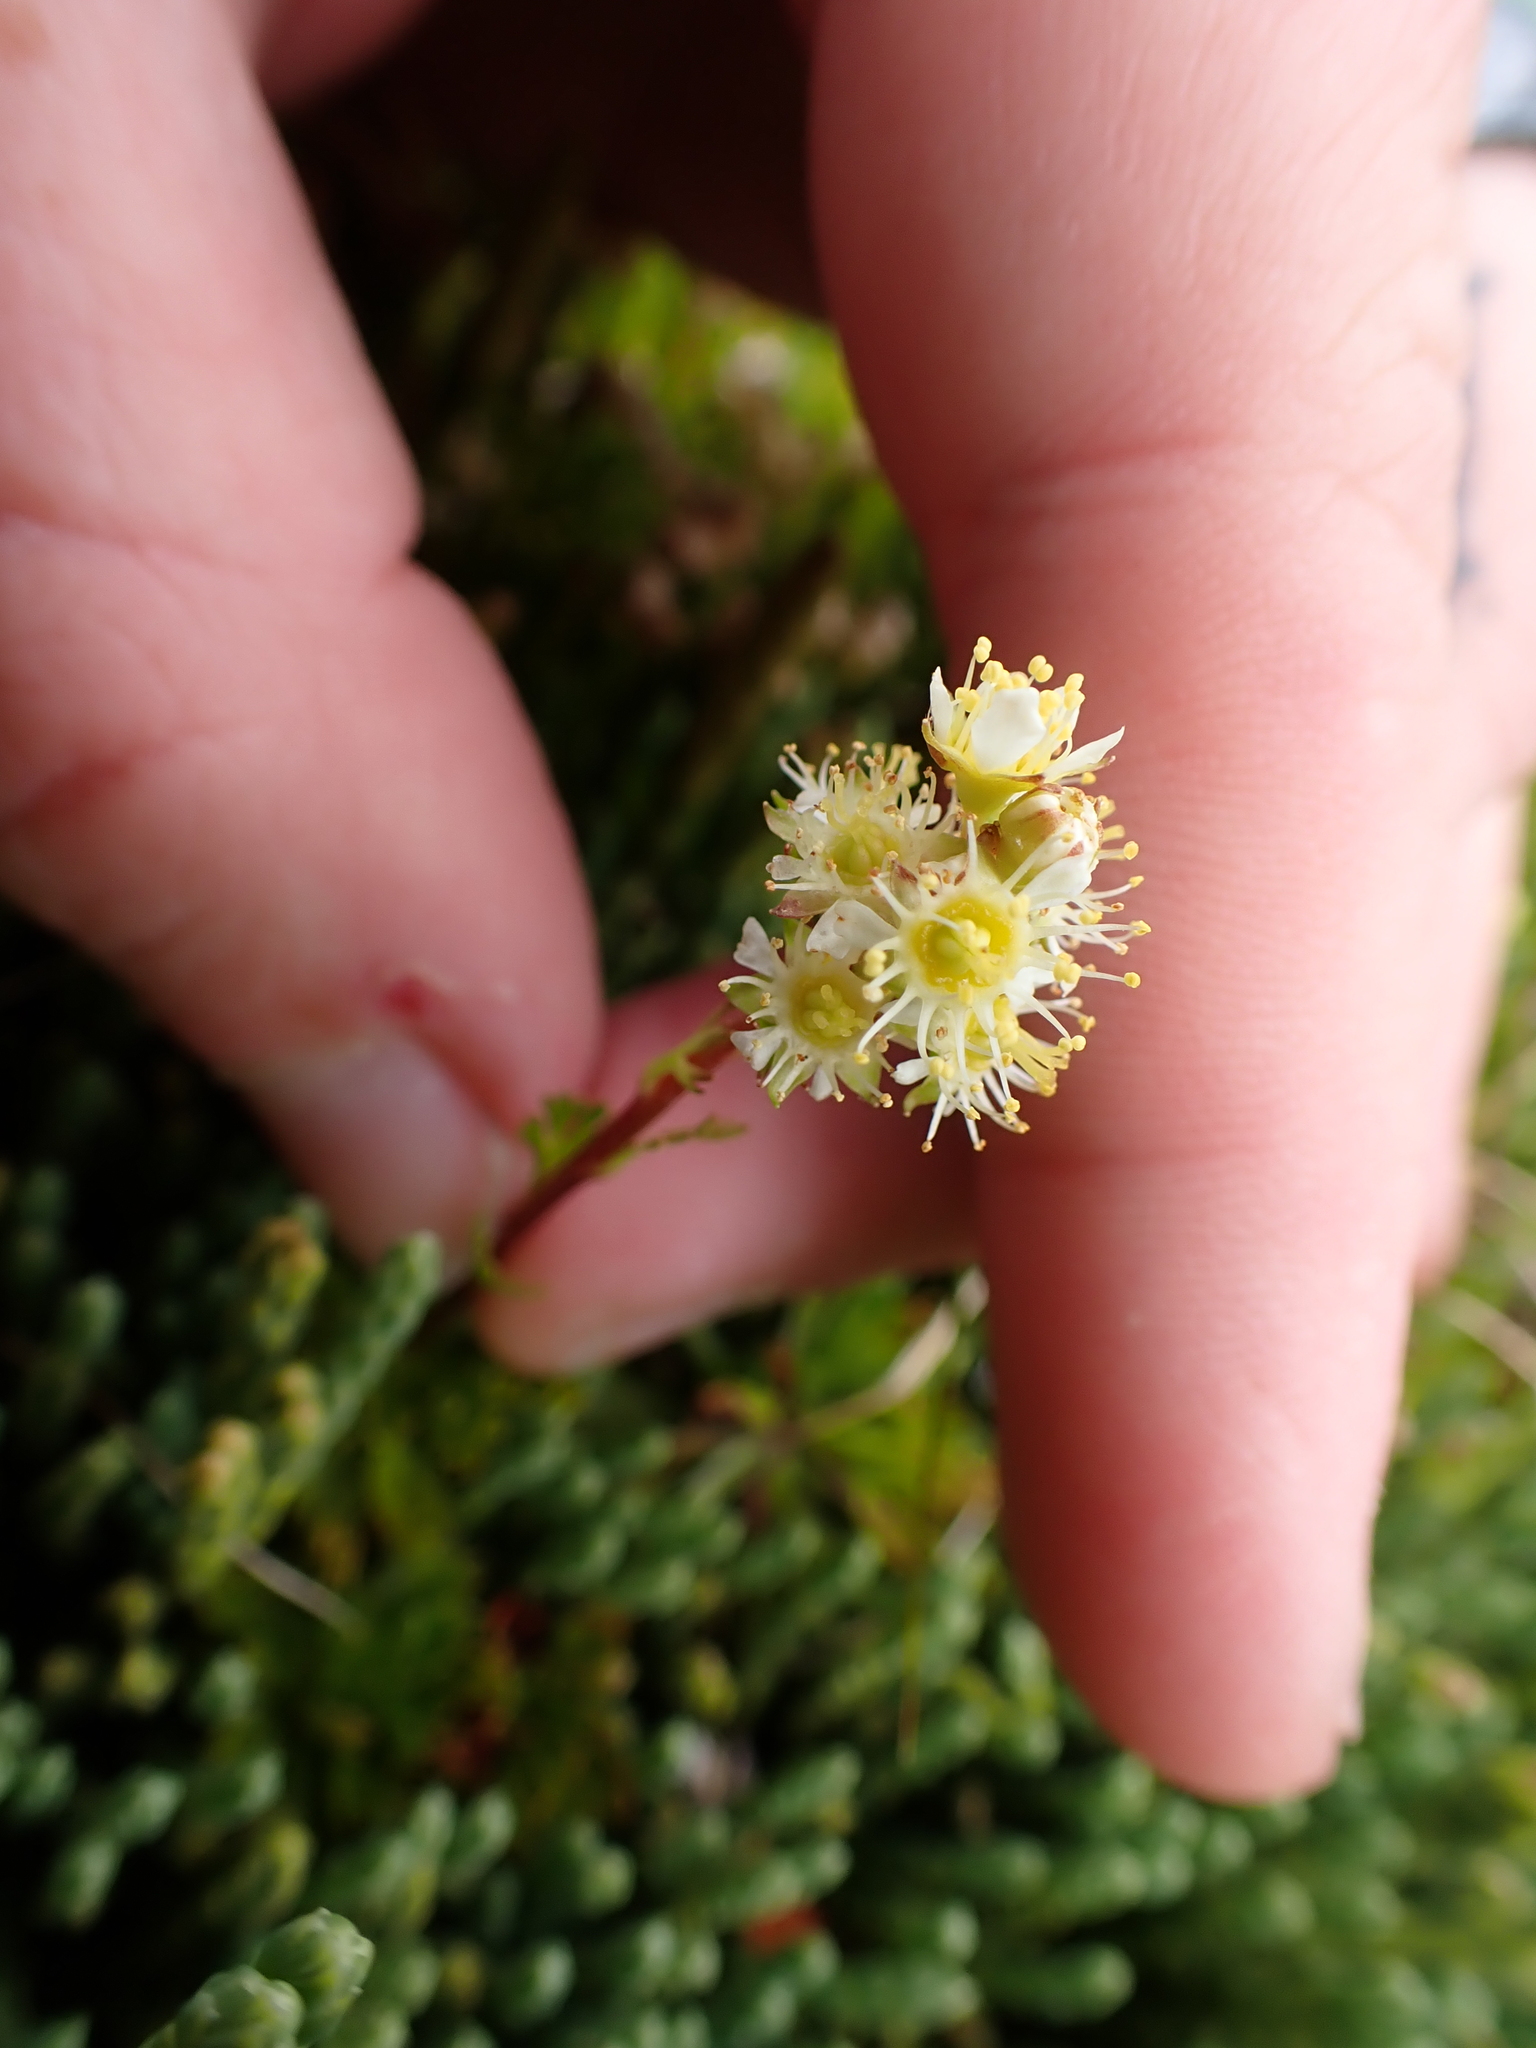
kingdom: Plantae
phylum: Tracheophyta
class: Magnoliopsida
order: Rosales
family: Rosaceae
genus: Luetkea
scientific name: Luetkea pectinata
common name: Partridgefoot
